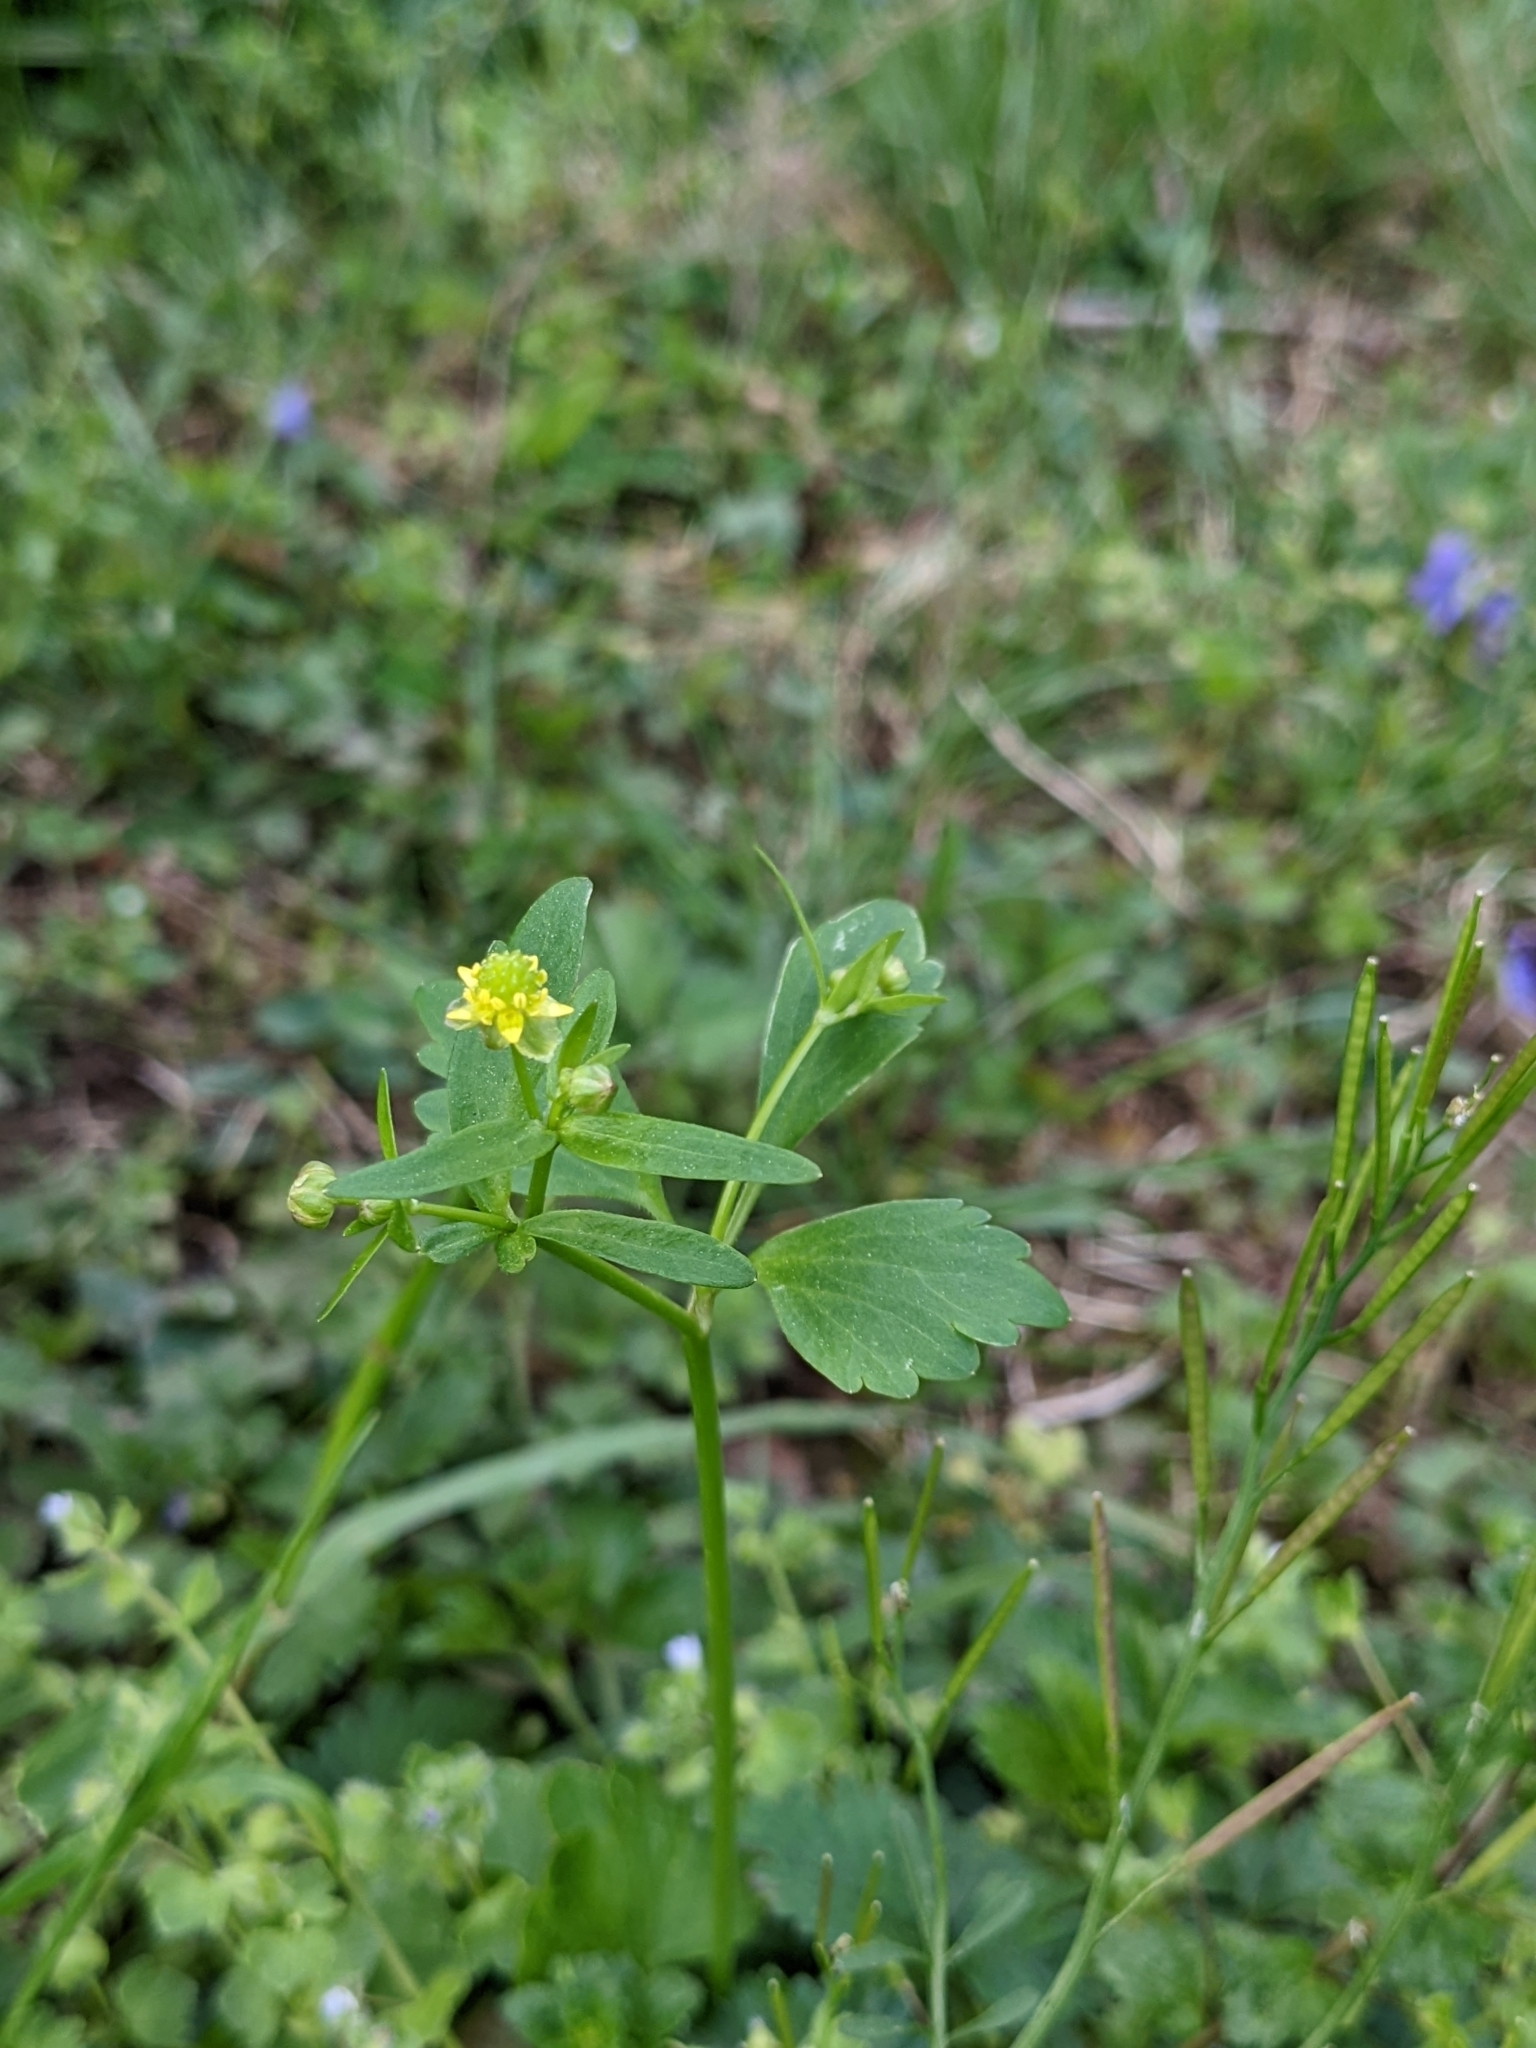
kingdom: Plantae
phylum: Tracheophyta
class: Magnoliopsida
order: Ranunculales
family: Ranunculaceae
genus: Ranunculus
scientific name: Ranunculus abortivus
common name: Early wood buttercup
